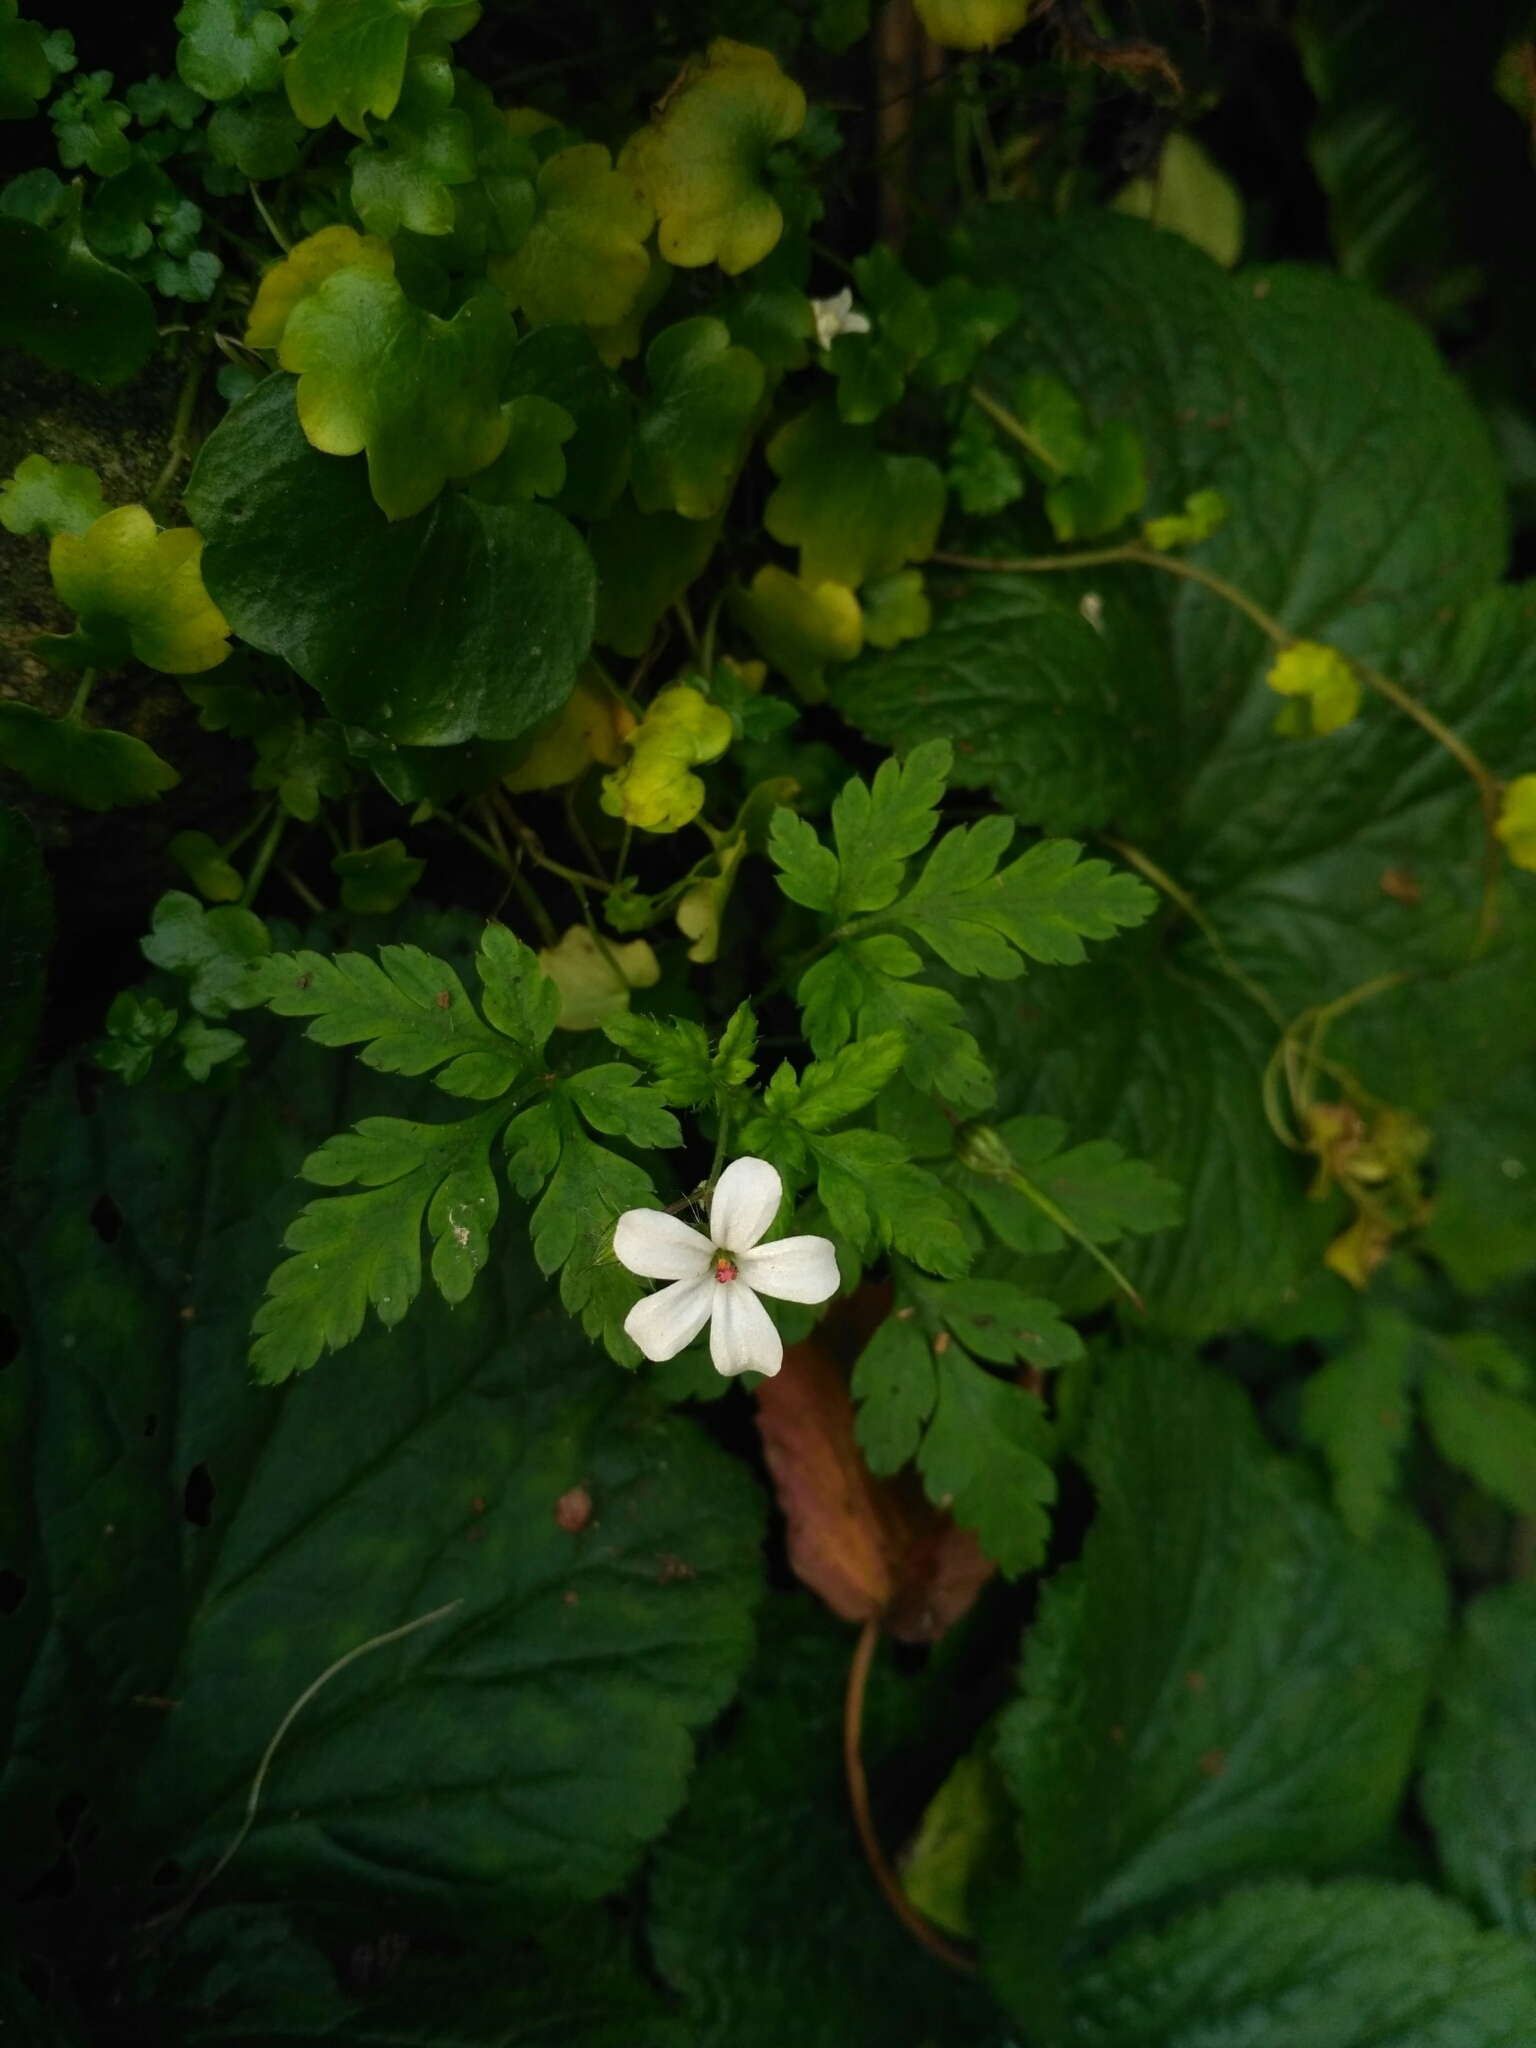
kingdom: Plantae
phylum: Tracheophyta
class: Magnoliopsida
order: Geraniales
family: Geraniaceae
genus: Geranium
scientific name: Geranium robertianum
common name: Herb-robert
